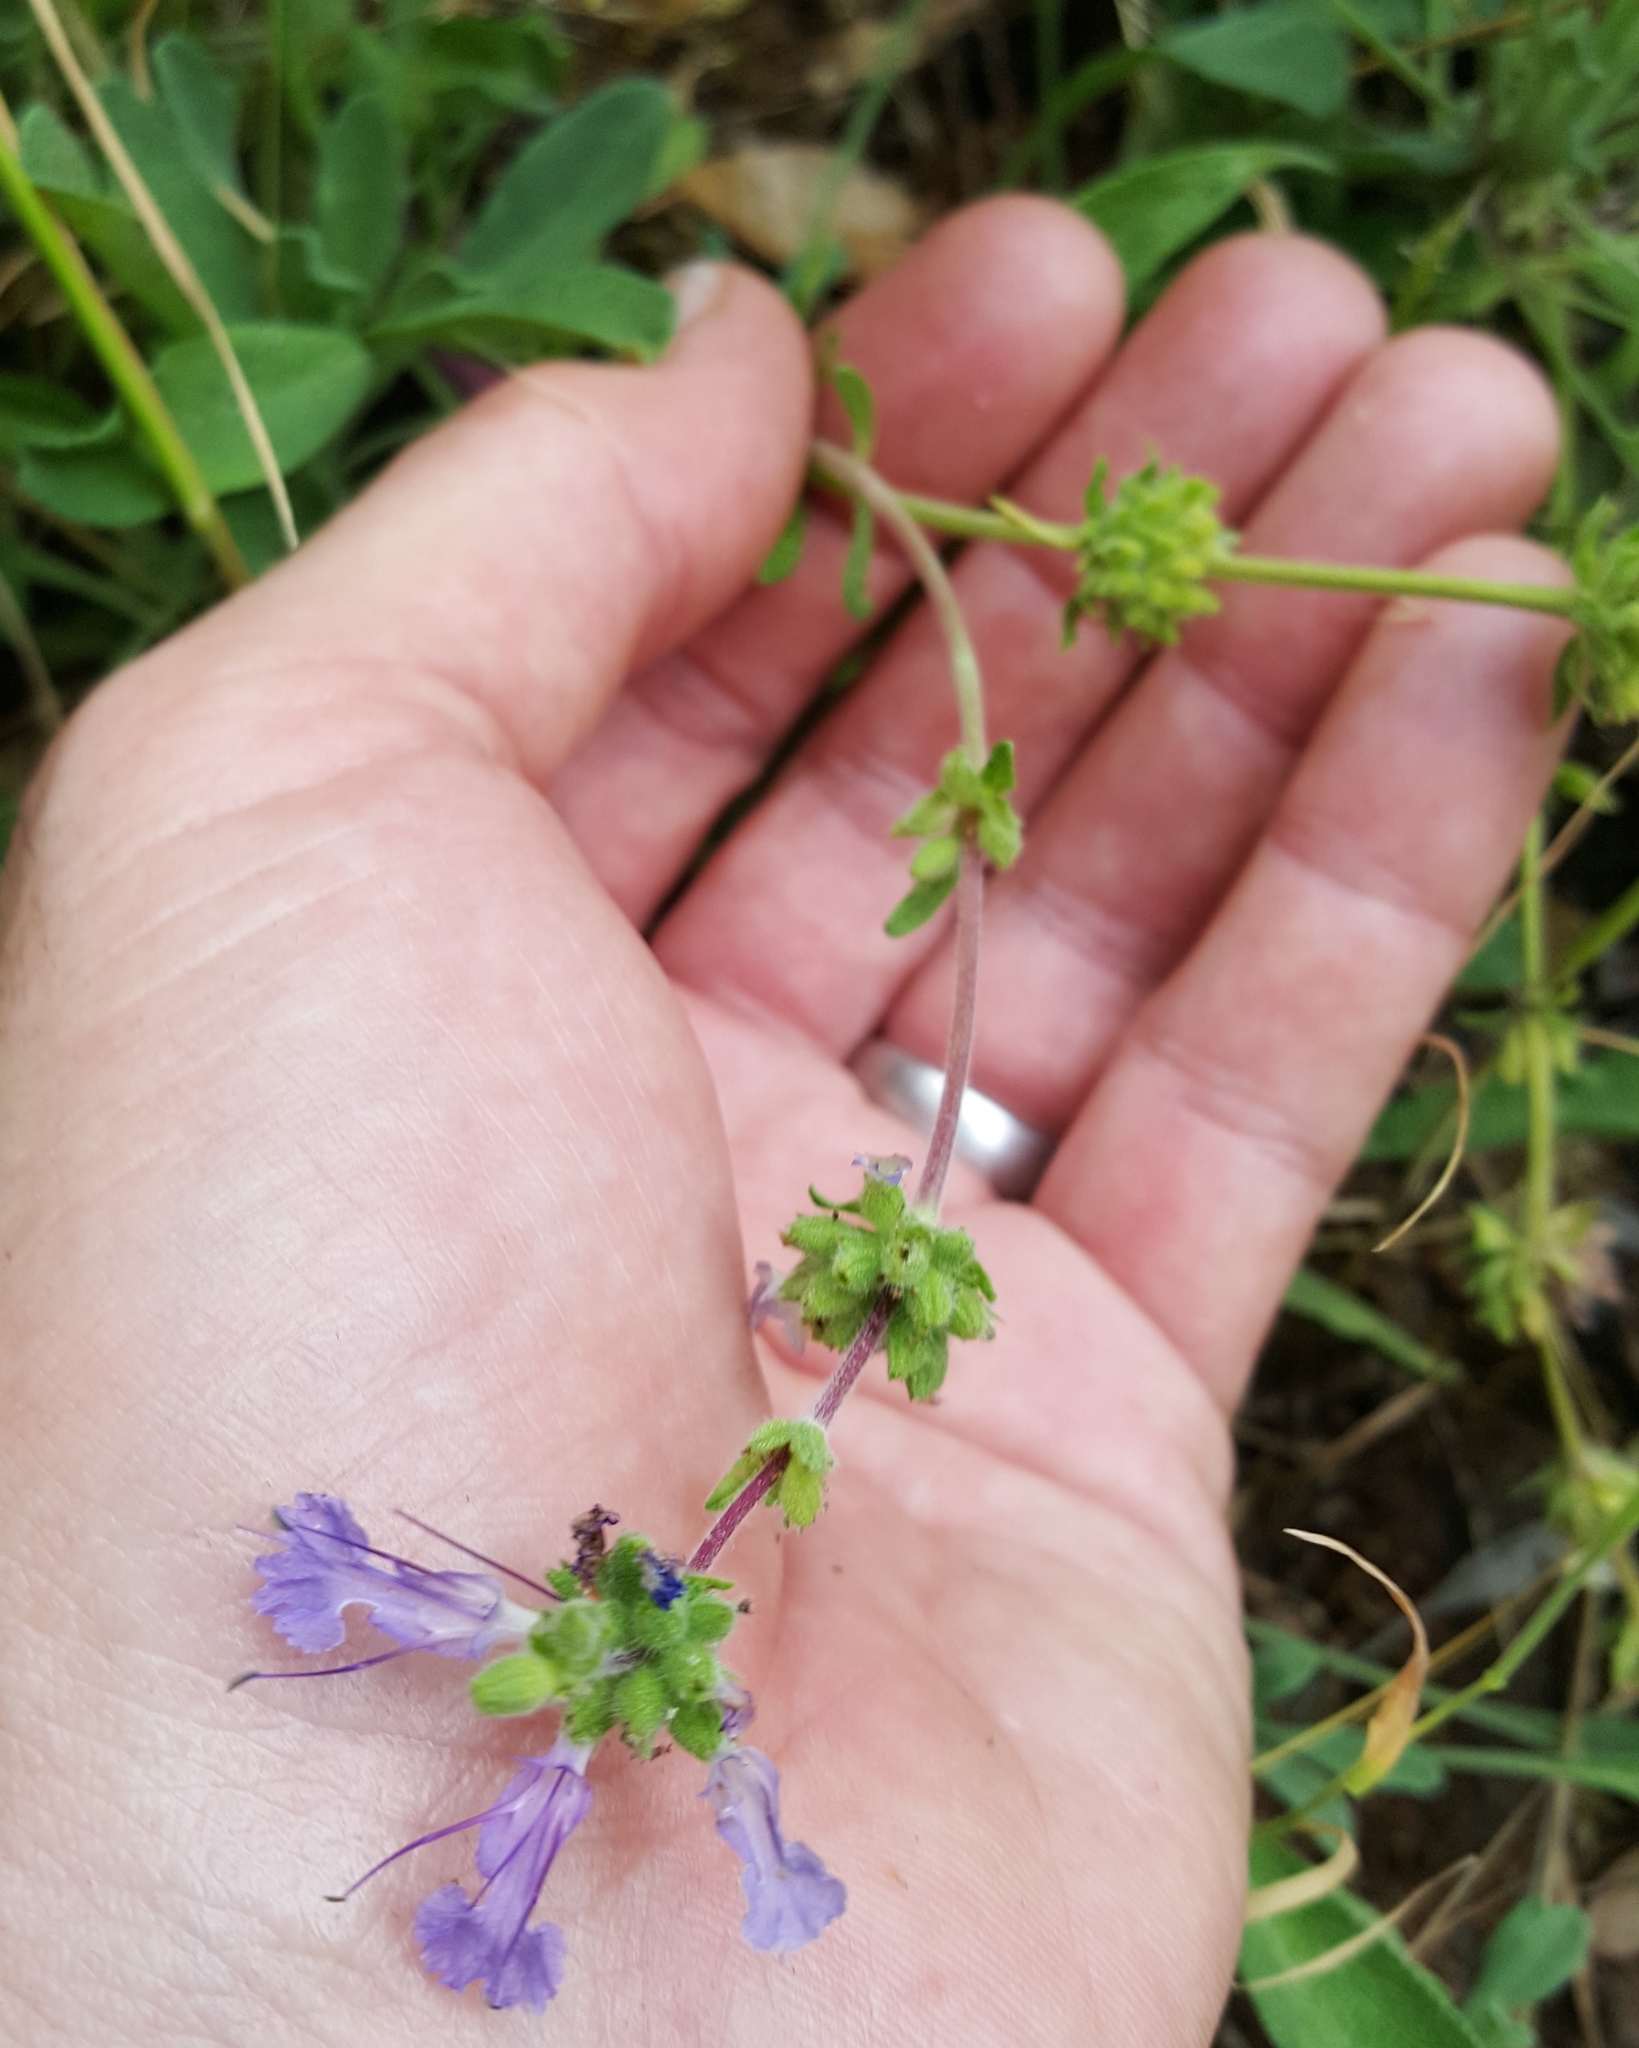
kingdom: Plantae
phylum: Tracheophyta
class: Magnoliopsida
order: Lamiales
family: Lamiaceae
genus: Salvia
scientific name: Salvia sonomensis
